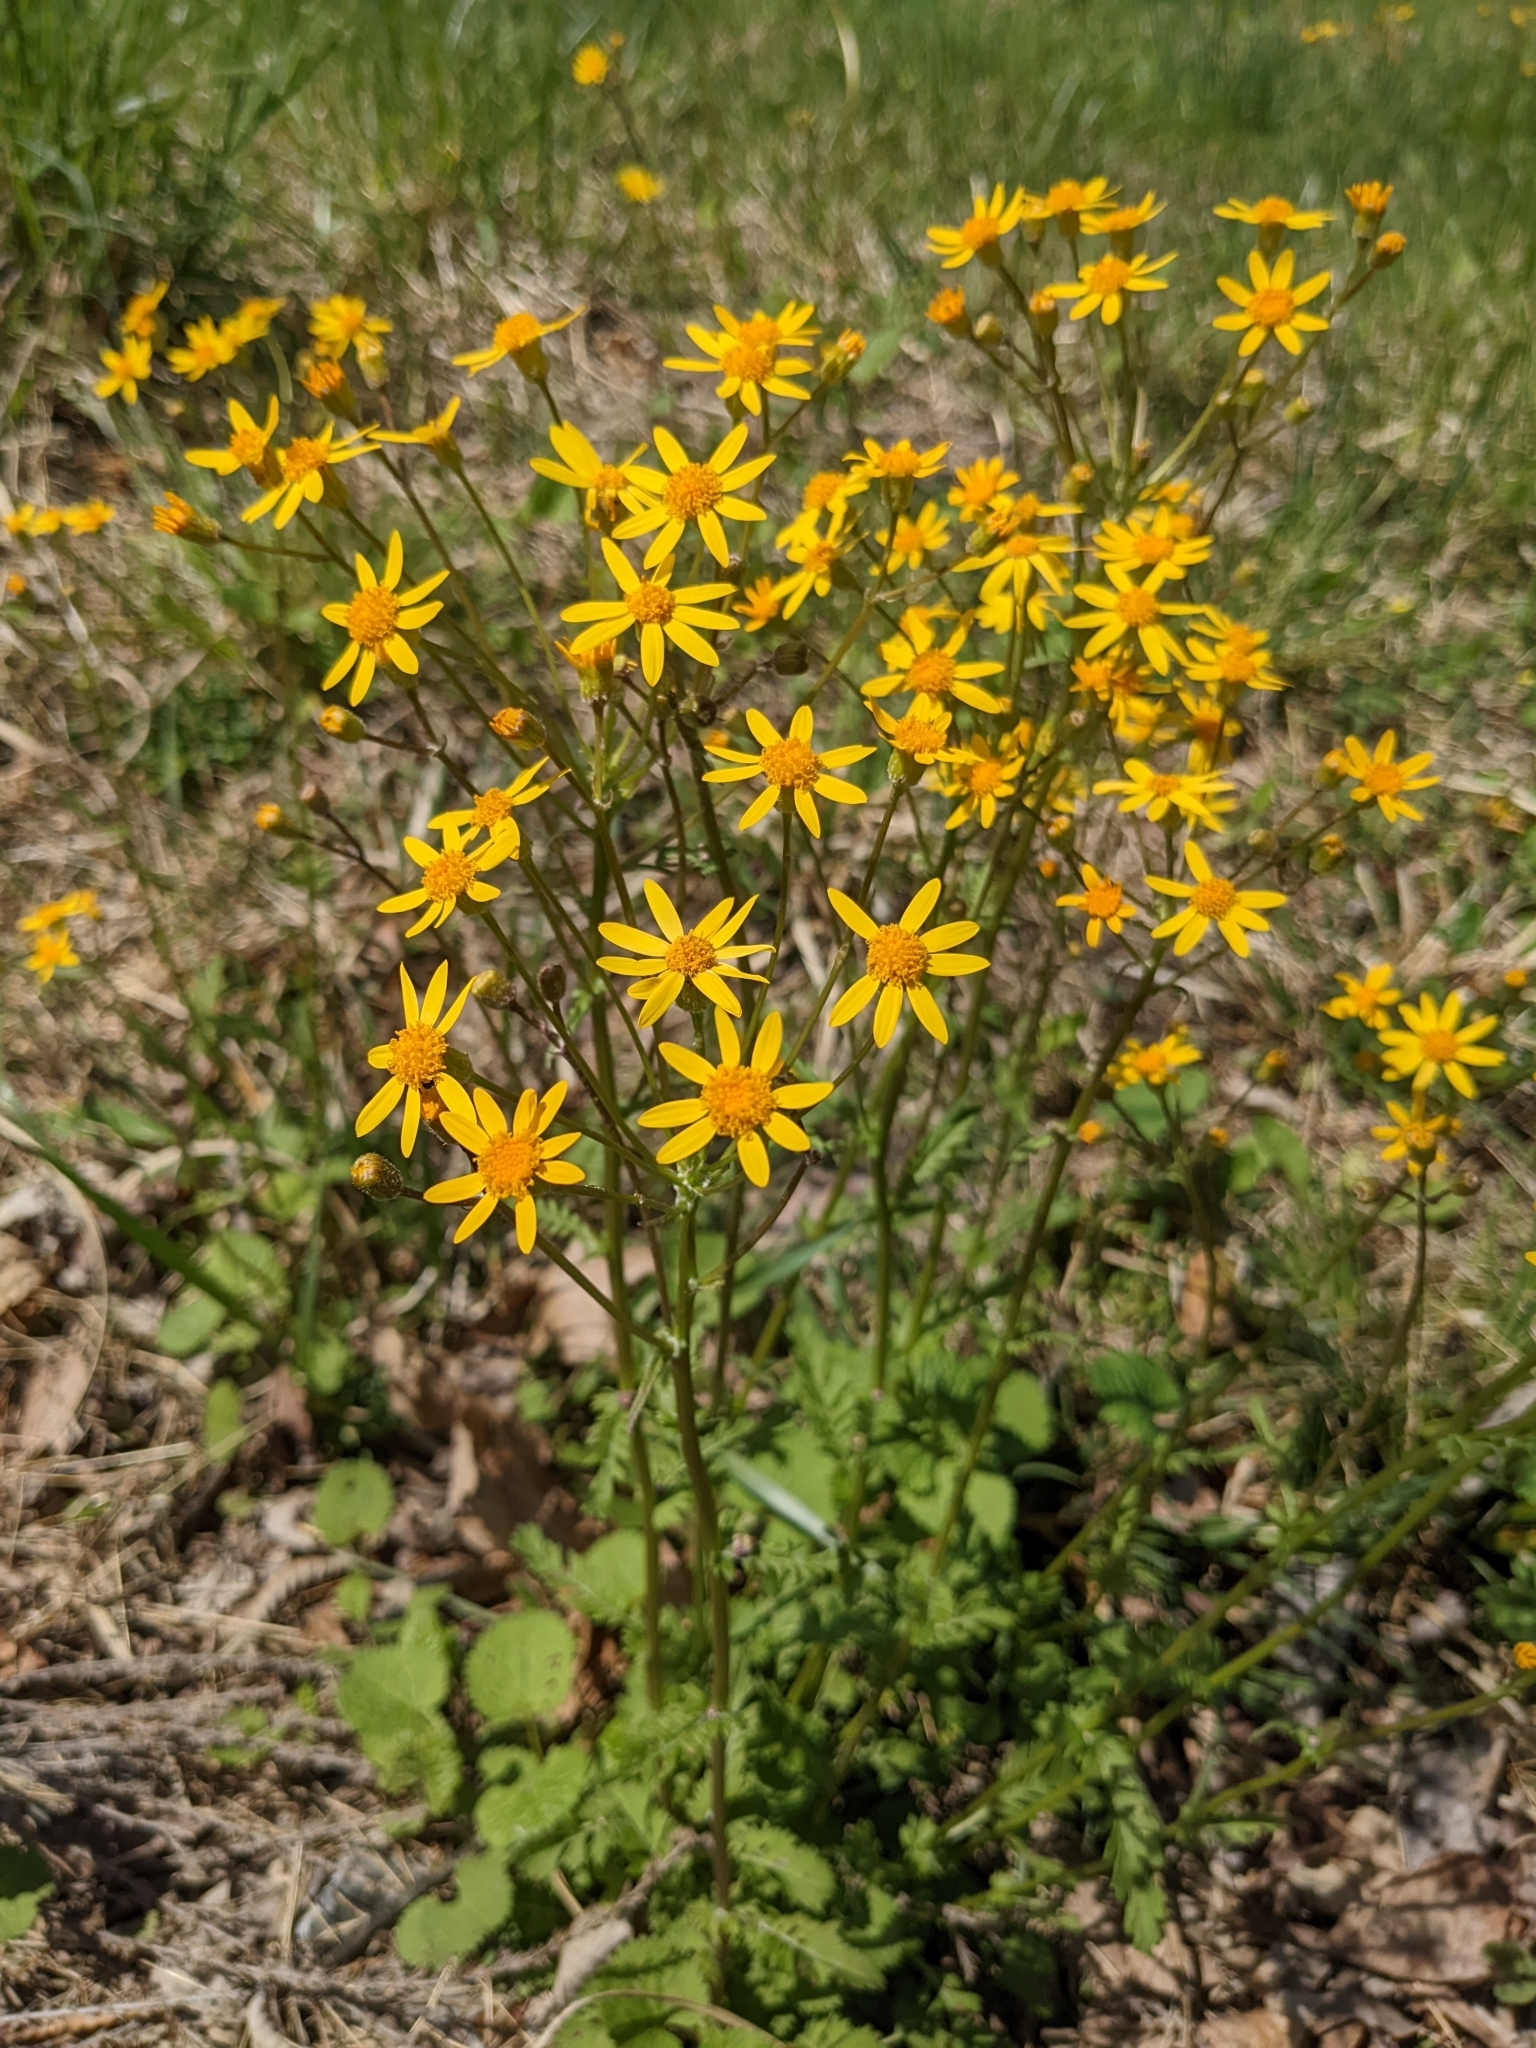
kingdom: Plantae
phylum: Tracheophyta
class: Magnoliopsida
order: Asterales
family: Asteraceae
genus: Packera
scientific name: Packera aurea
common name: Golden groundsel
